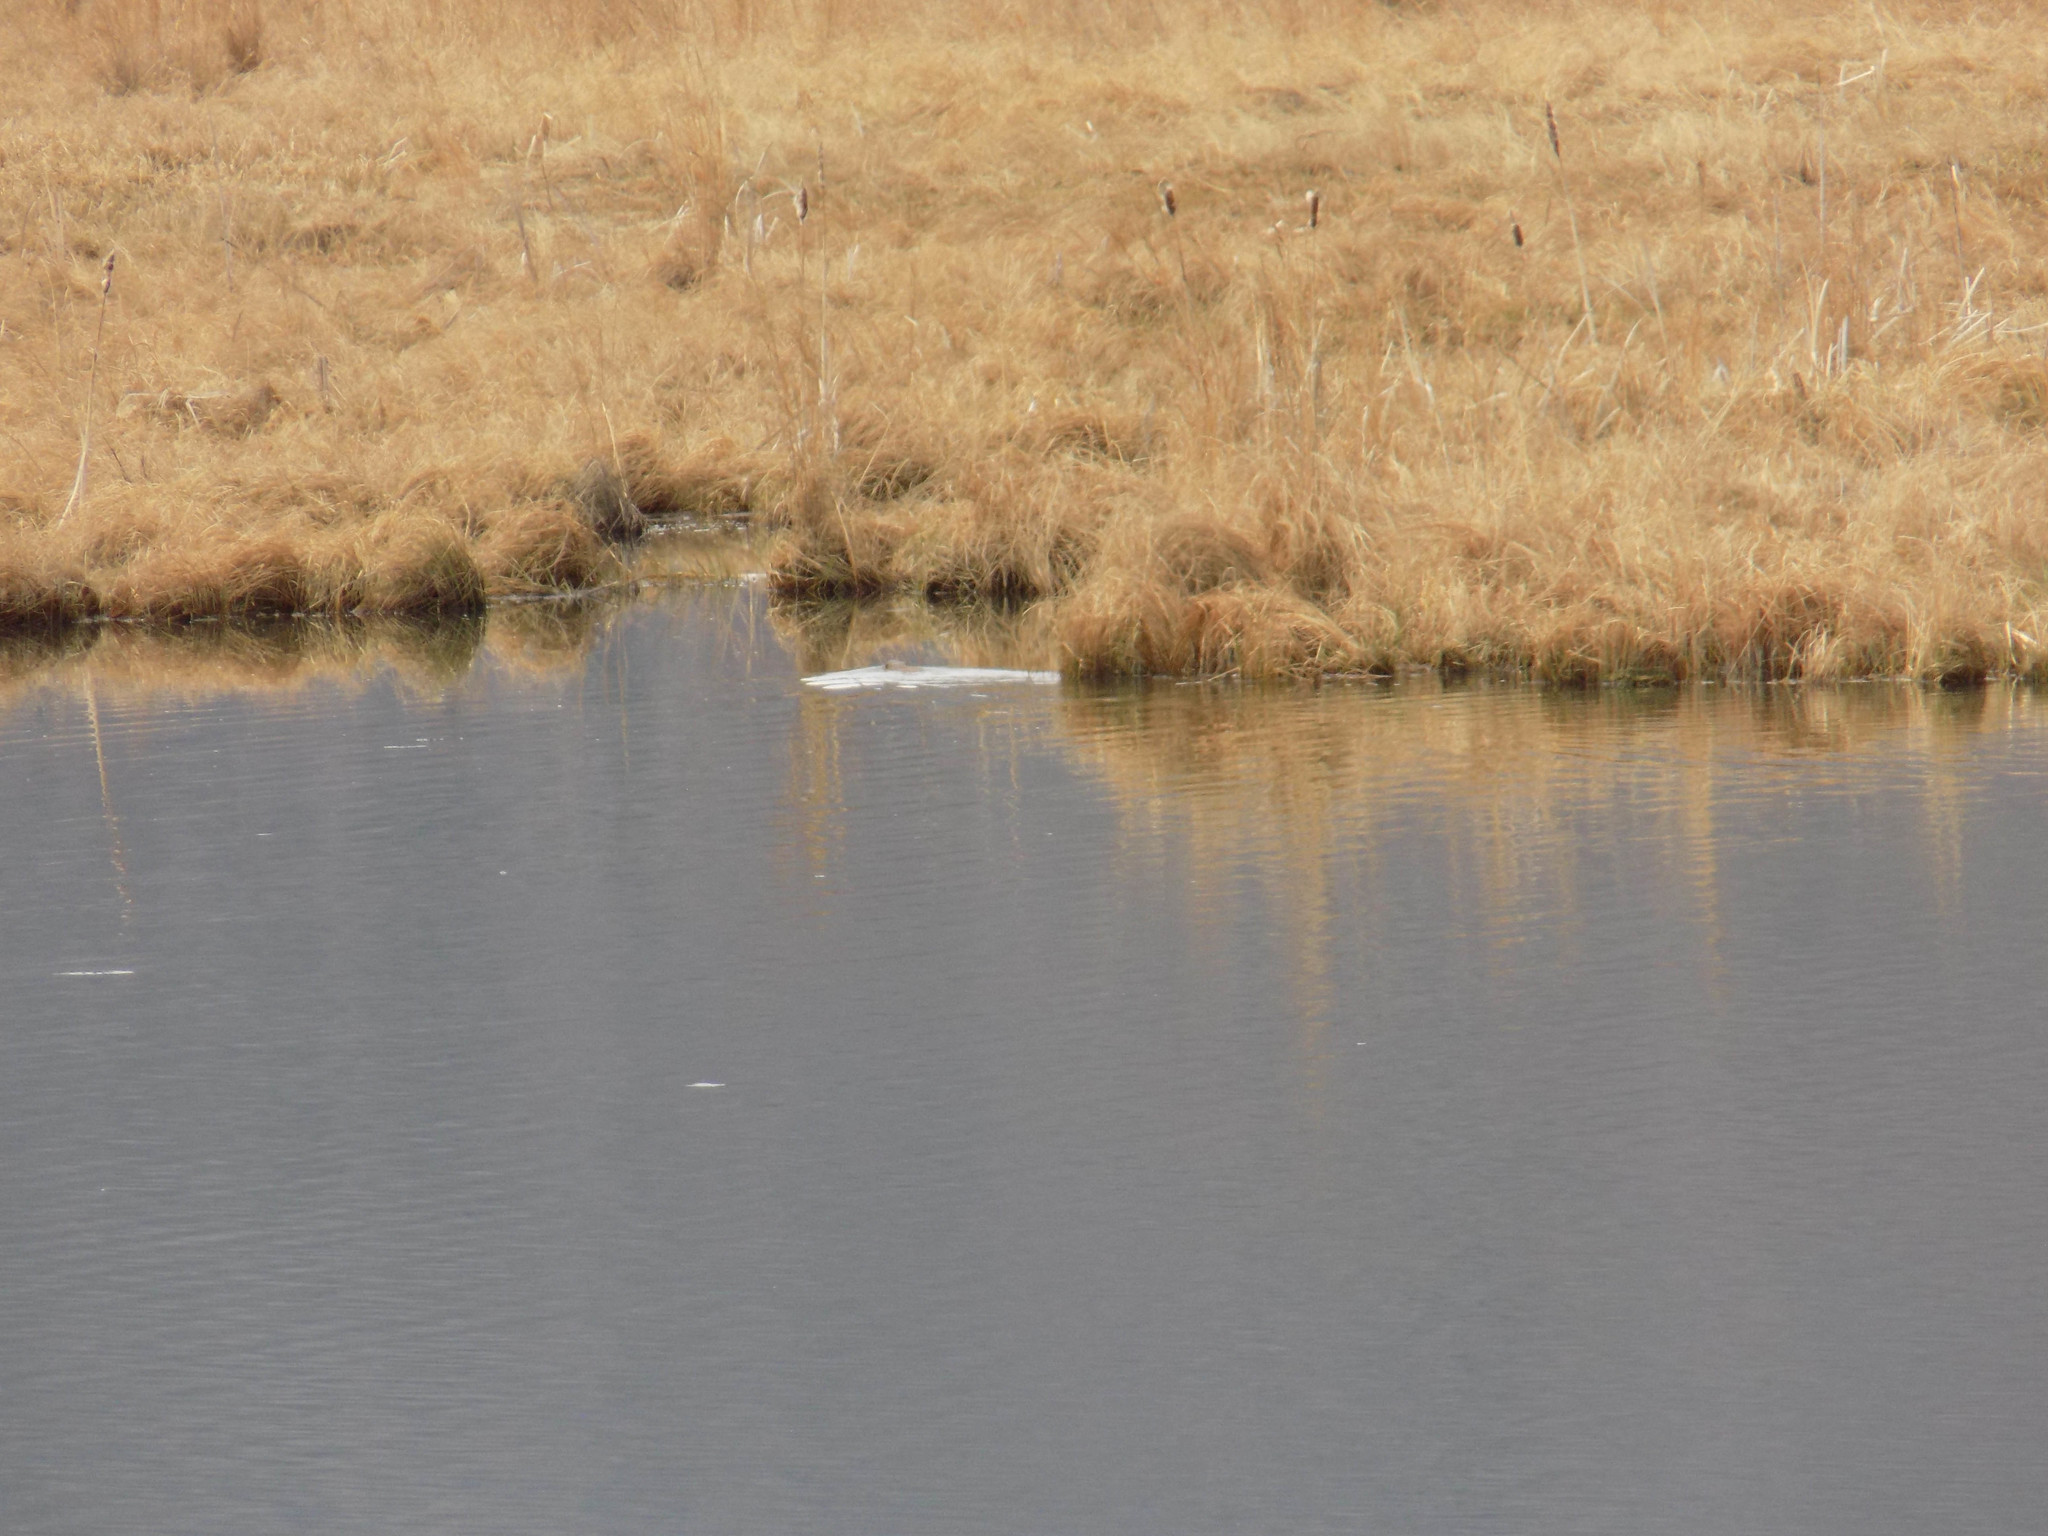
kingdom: Animalia
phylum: Chordata
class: Mammalia
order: Rodentia
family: Cricetidae
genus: Ondatra
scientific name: Ondatra zibethicus
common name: Muskrat
